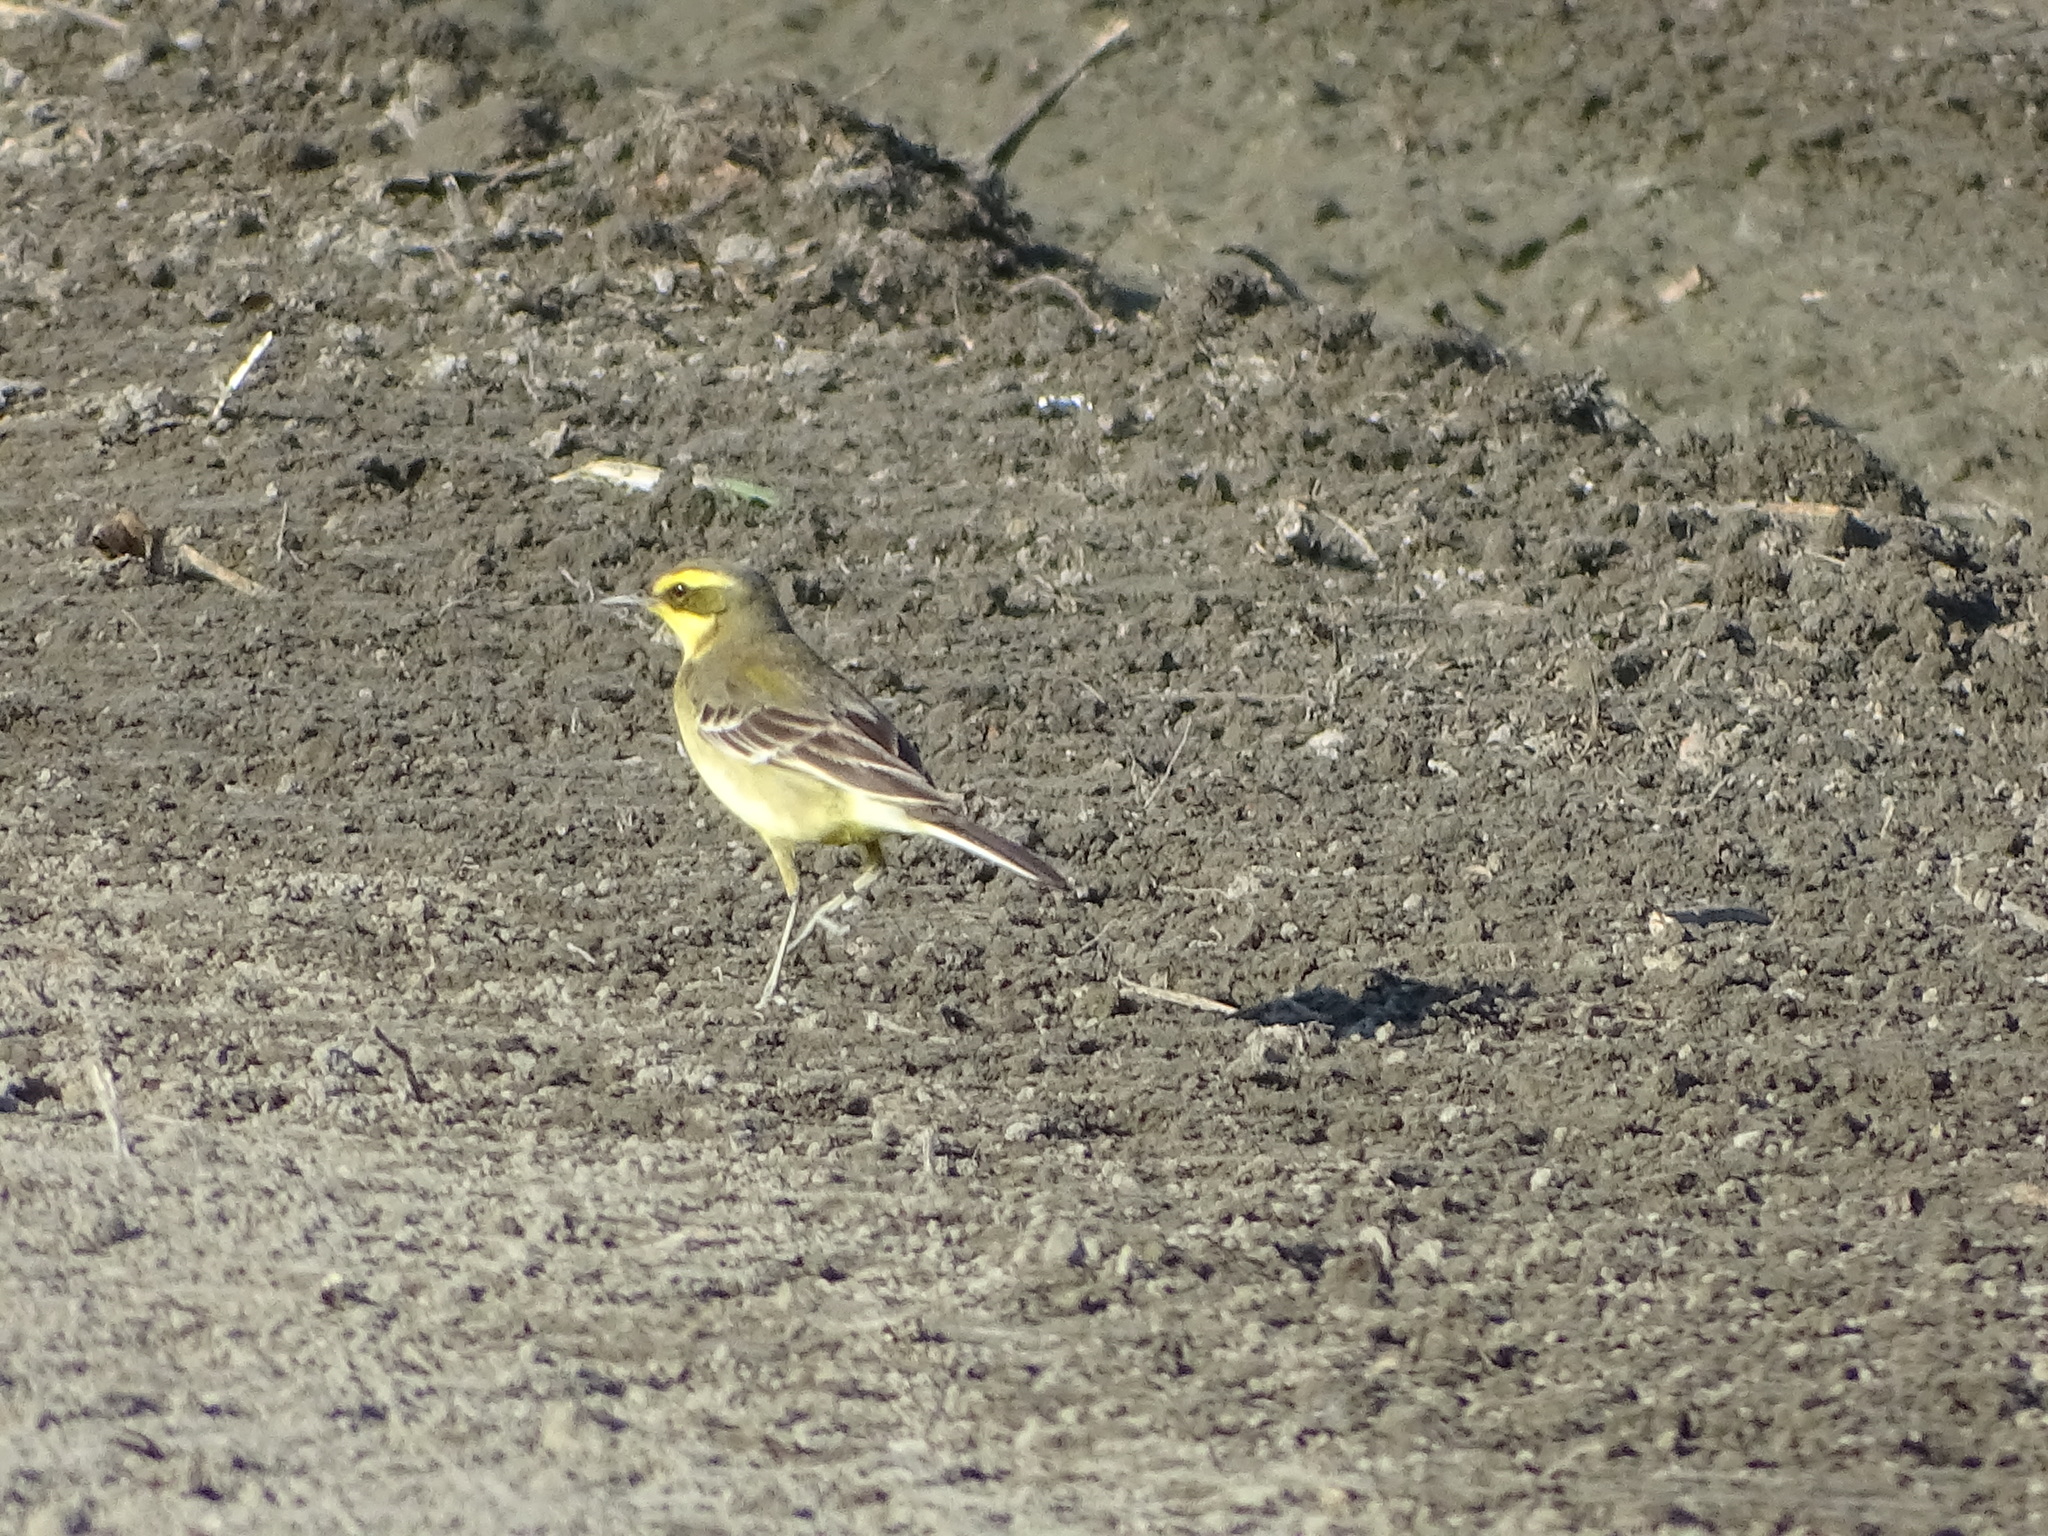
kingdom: Animalia
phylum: Chordata
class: Aves
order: Passeriformes
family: Motacillidae
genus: Motacilla
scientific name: Motacilla tschutschensis
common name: Eastern yellow wagtail
